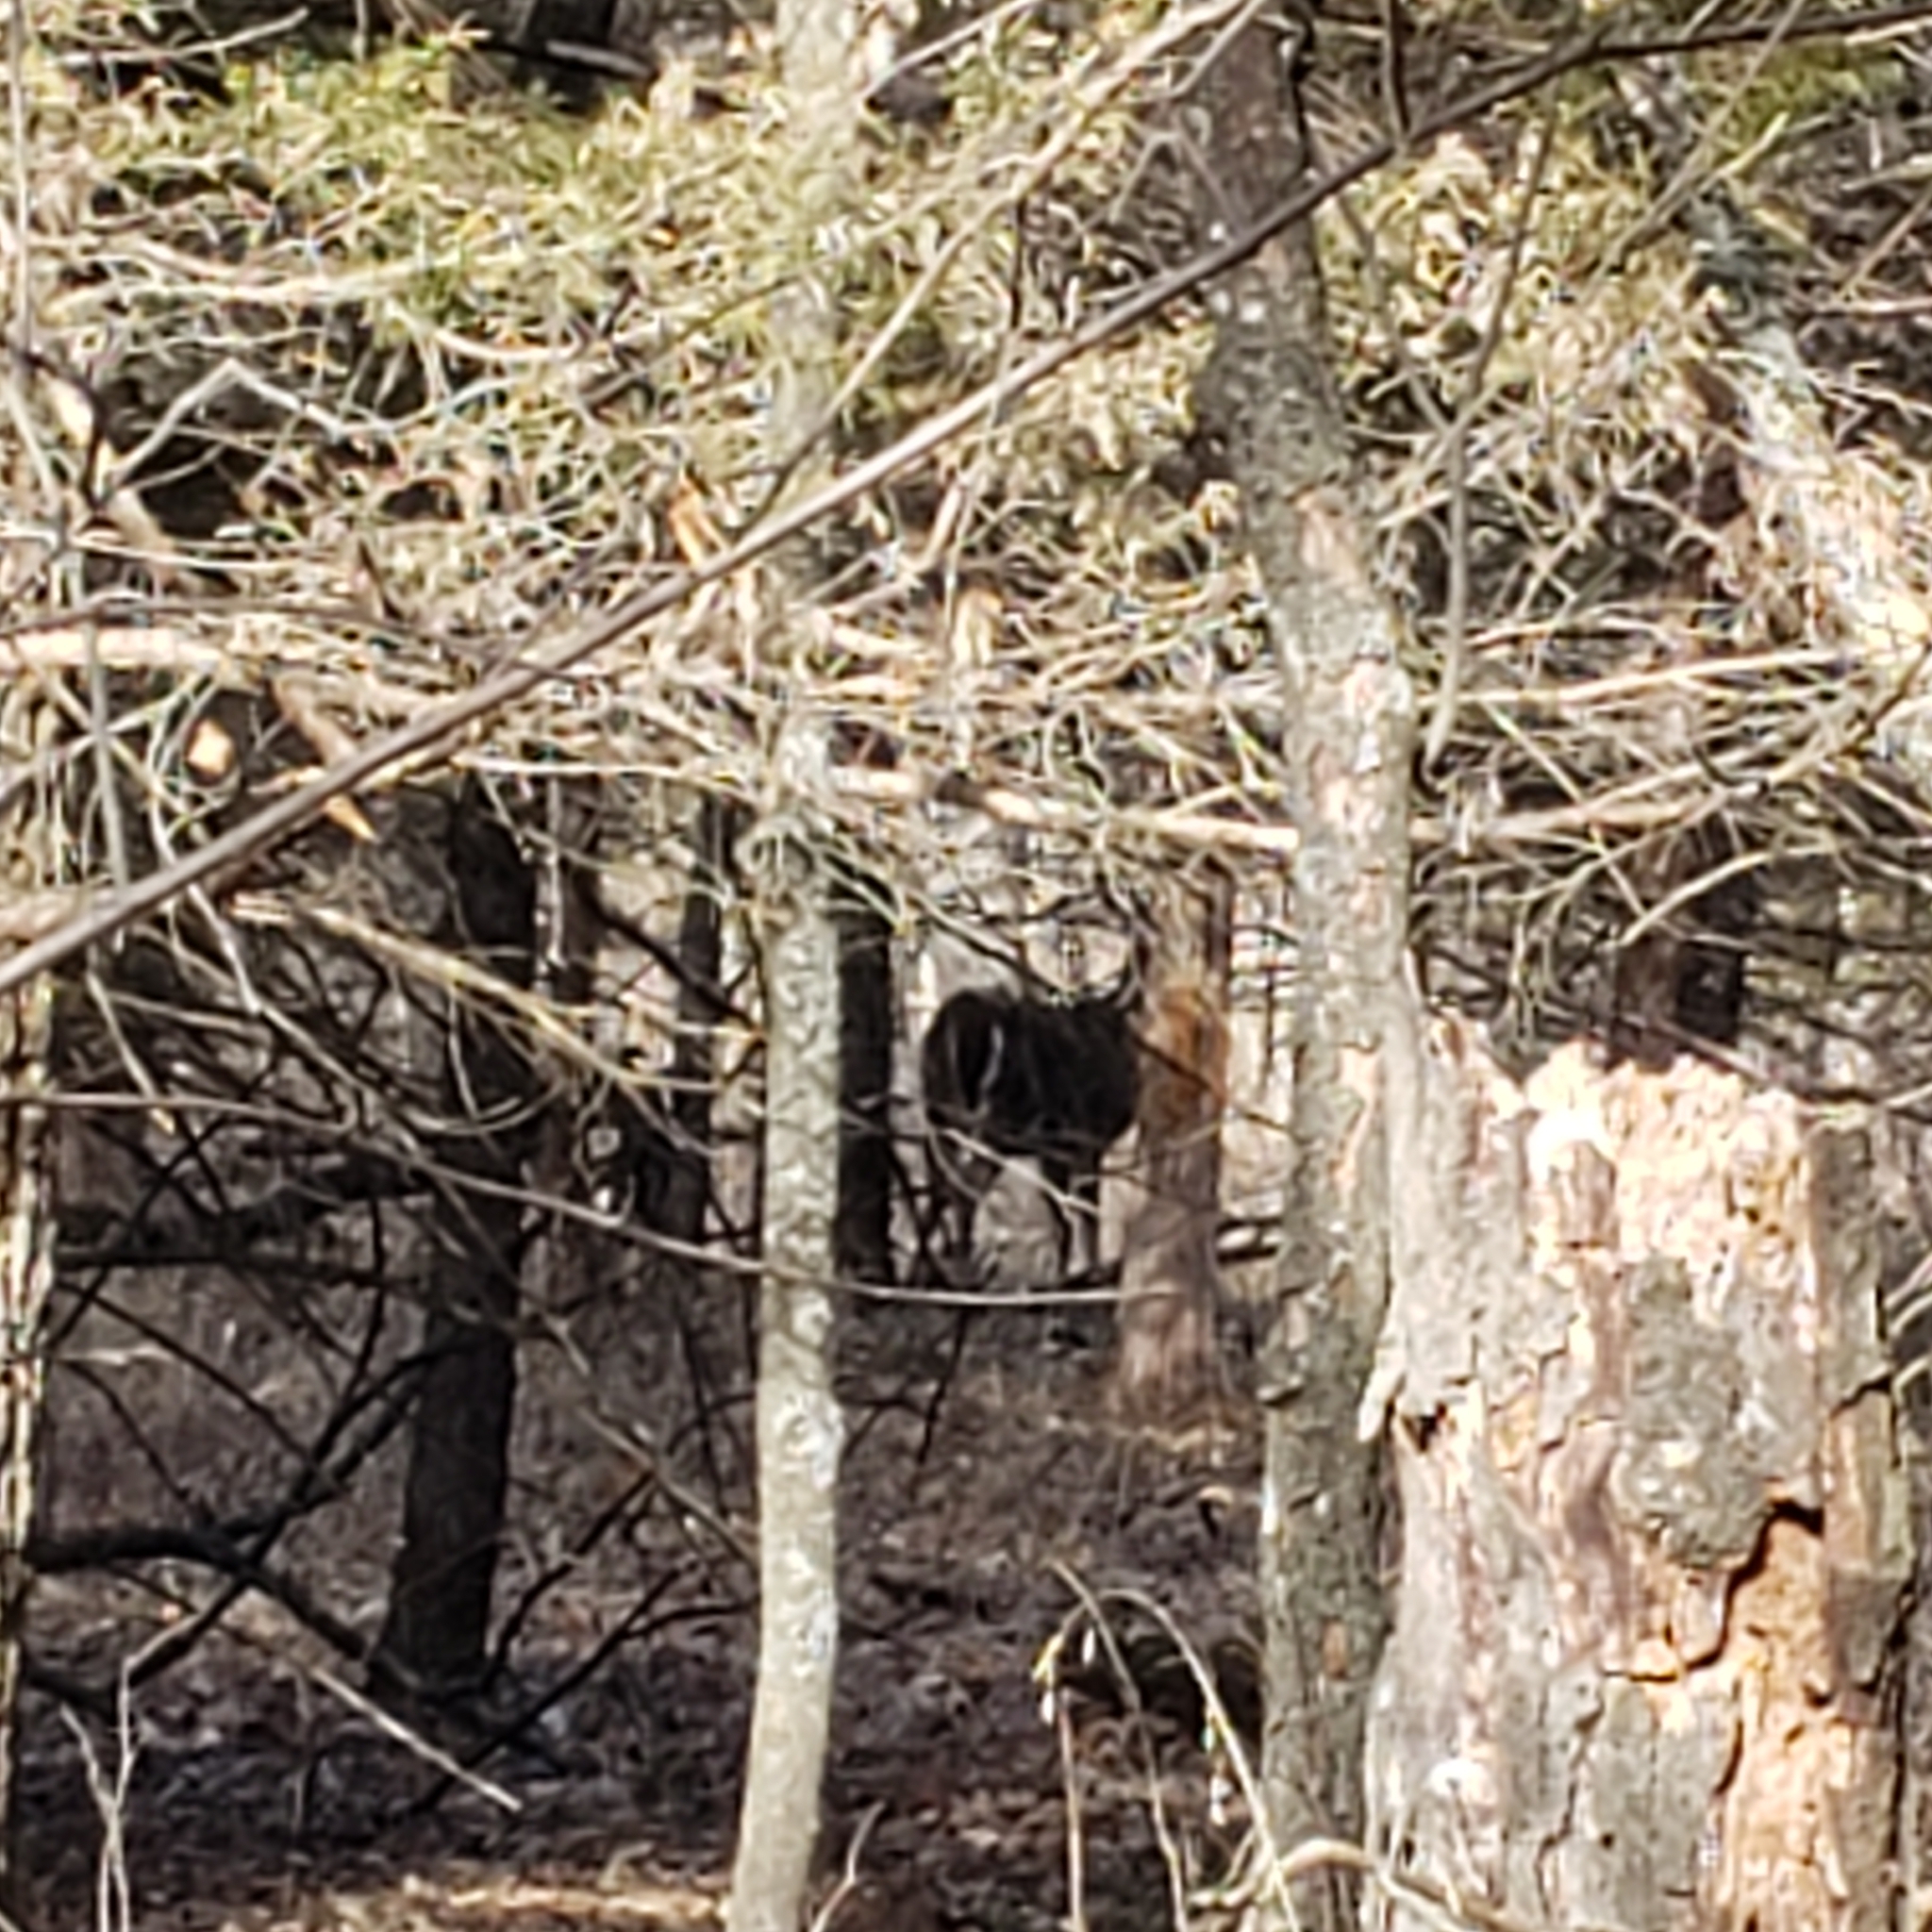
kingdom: Animalia
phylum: Chordata
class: Mammalia
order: Artiodactyla
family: Cervidae
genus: Odocoileus
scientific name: Odocoileus virginianus
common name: White-tailed deer
